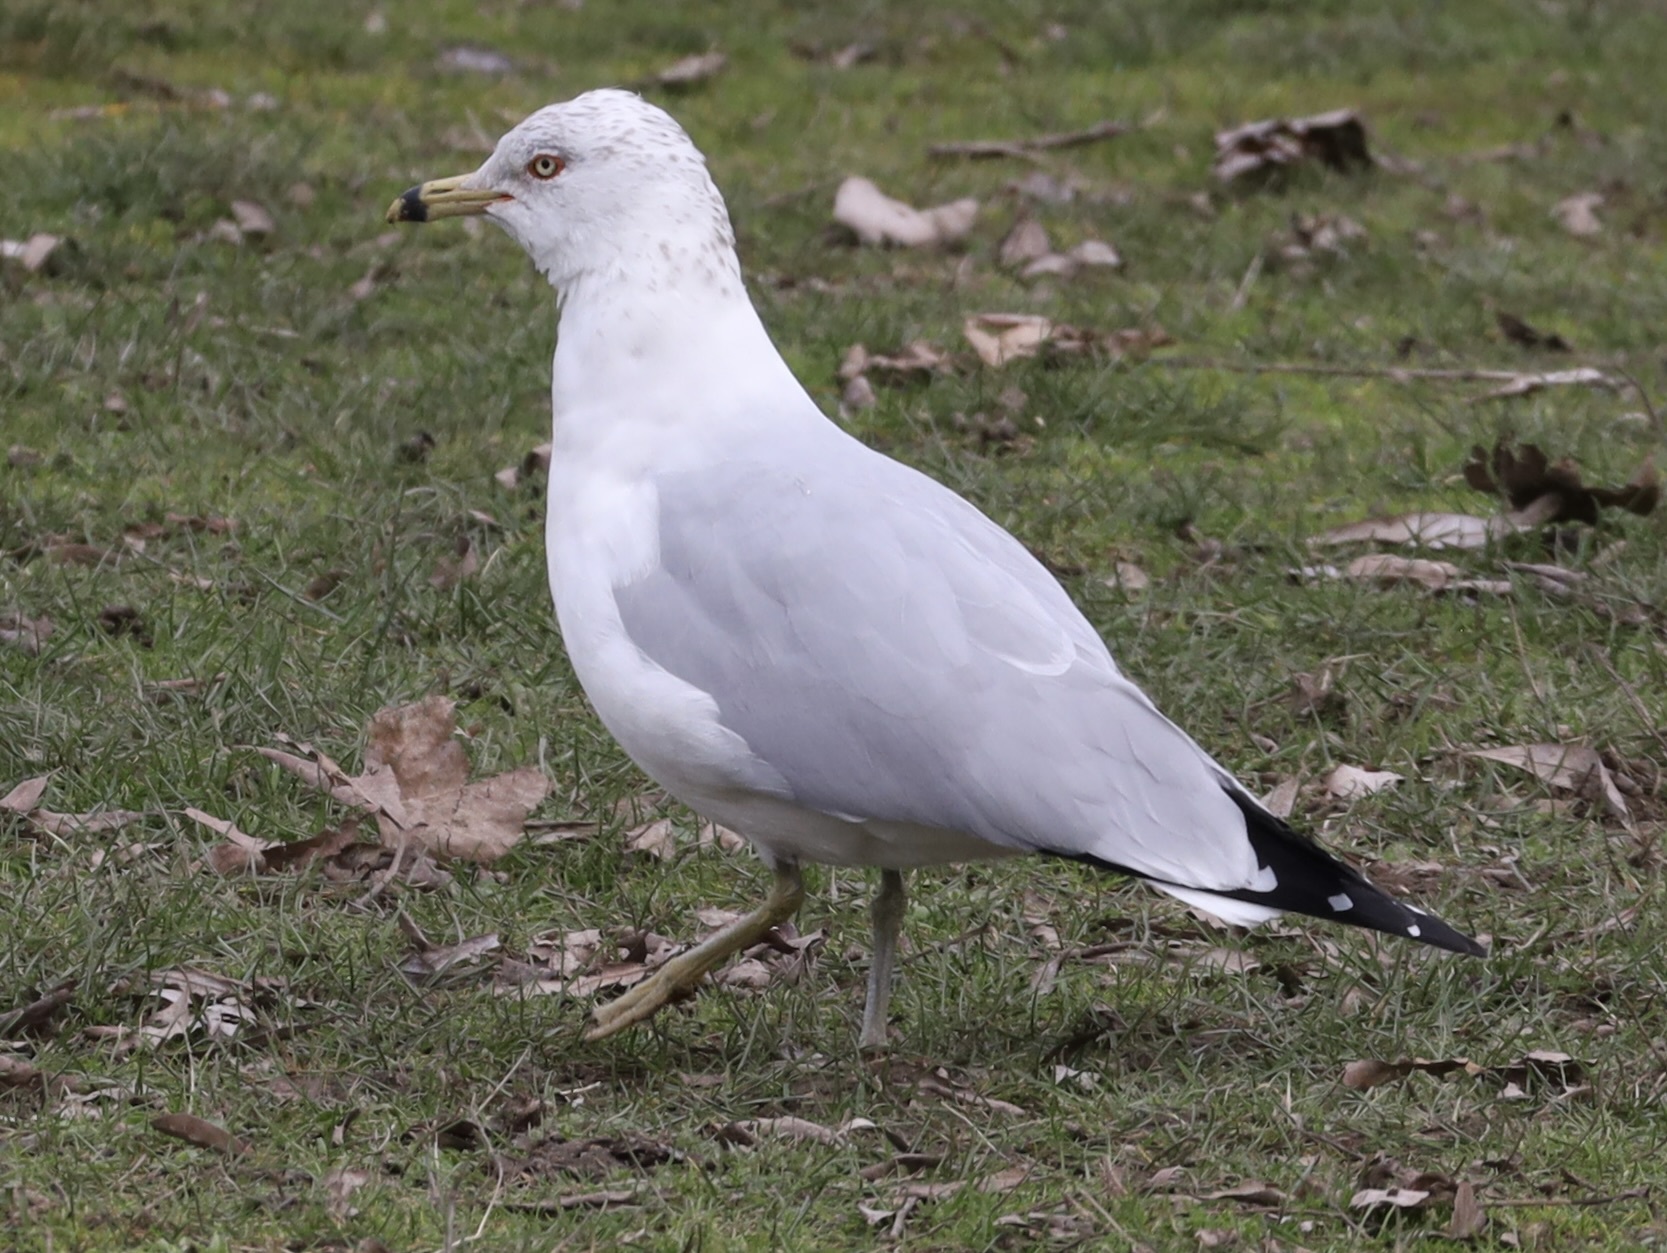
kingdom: Animalia
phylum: Chordata
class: Aves
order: Charadriiformes
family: Laridae
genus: Larus
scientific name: Larus delawarensis
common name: Ring-billed gull
